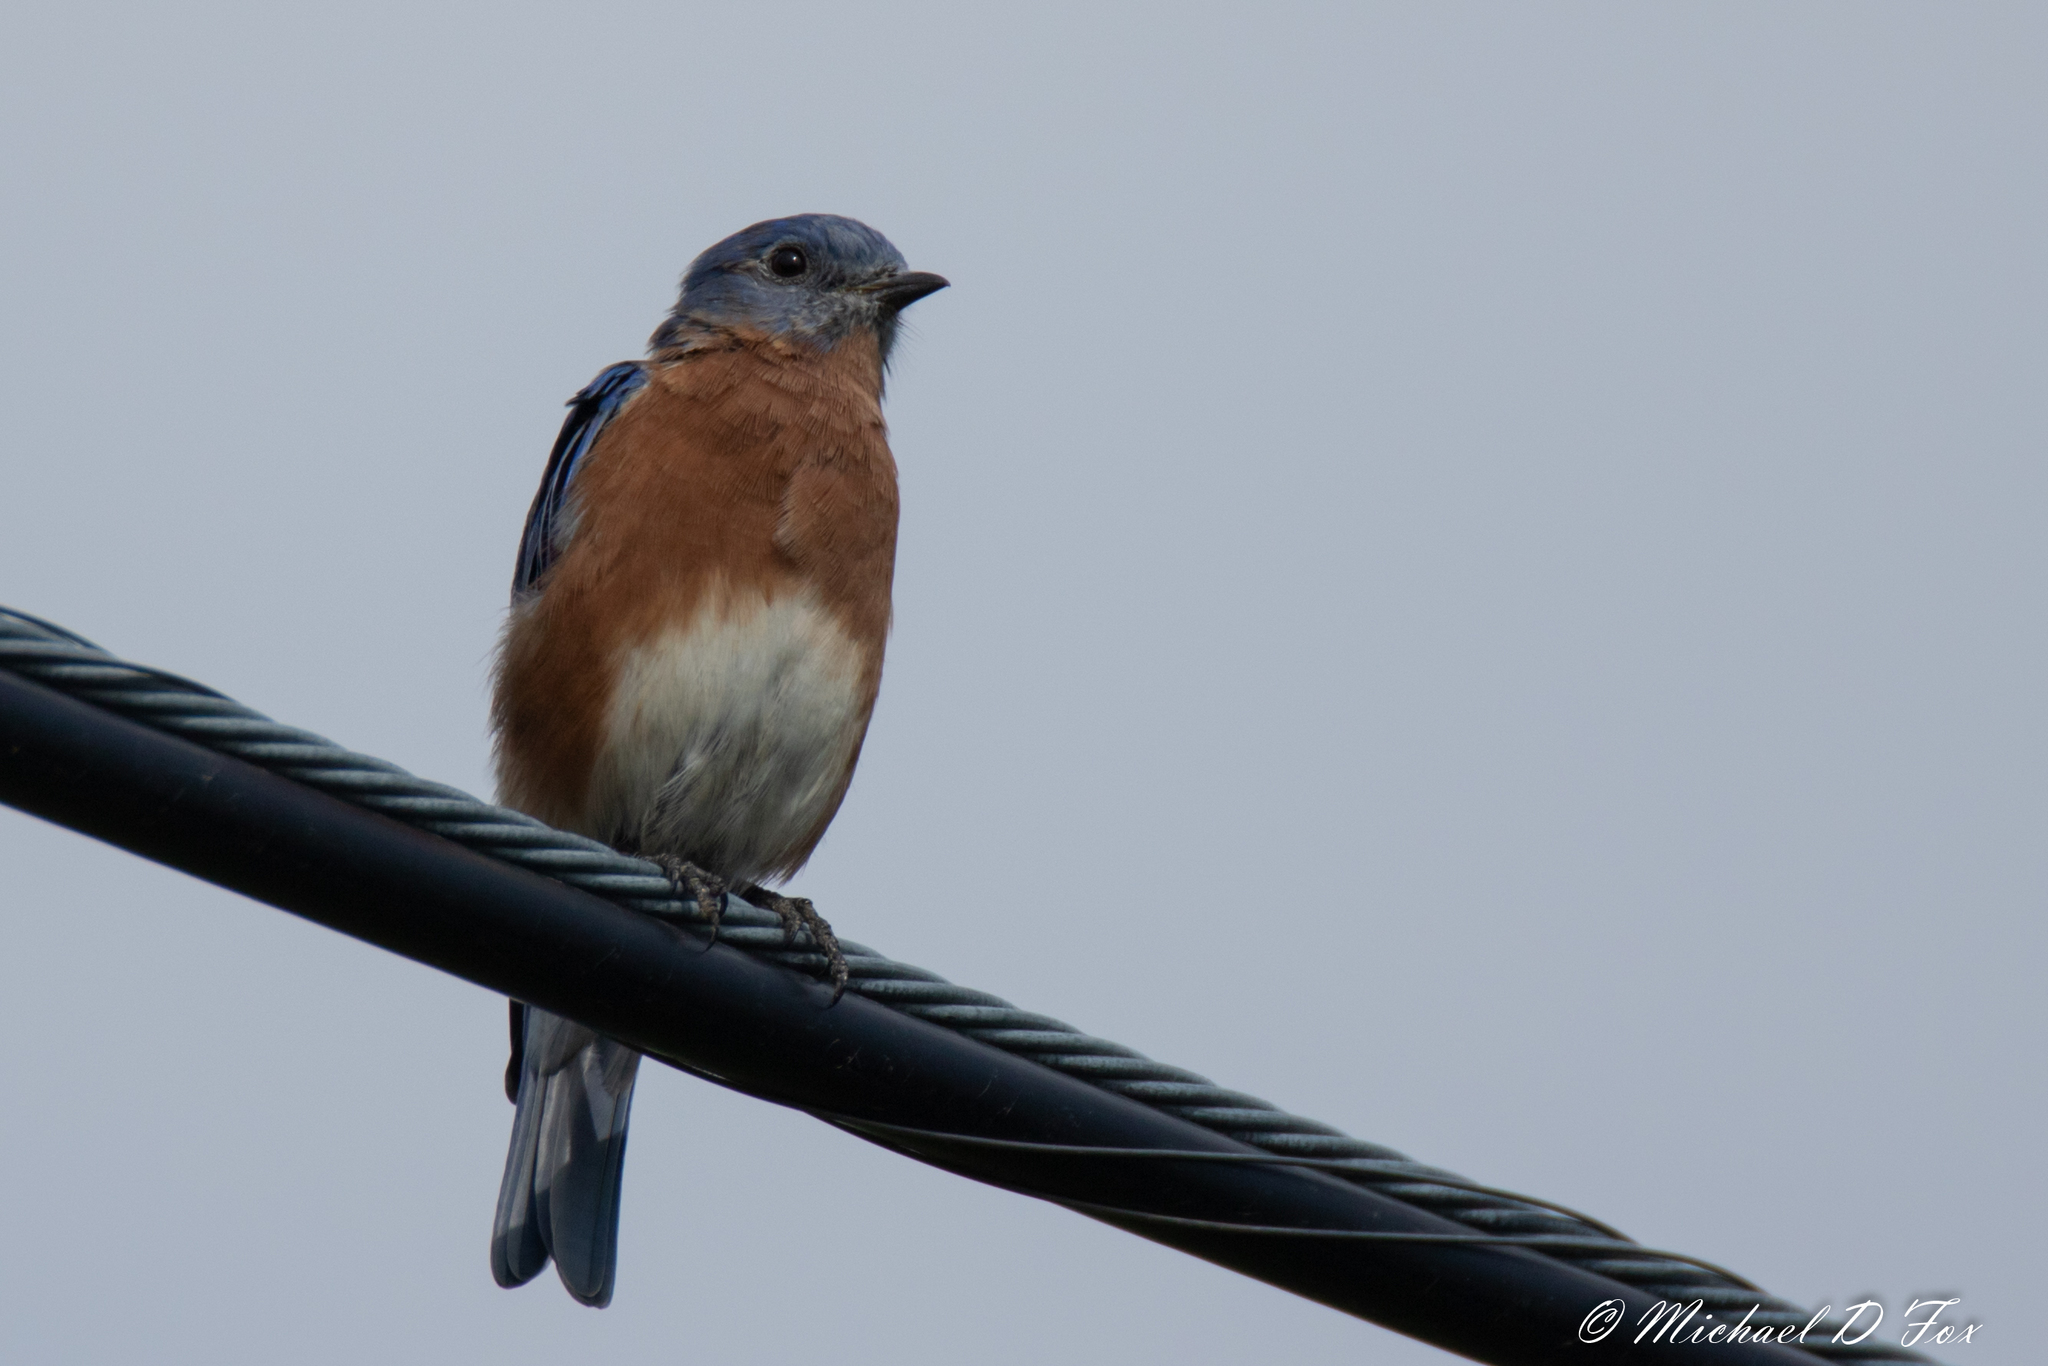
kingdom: Animalia
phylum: Chordata
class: Aves
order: Passeriformes
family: Turdidae
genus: Sialia
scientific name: Sialia sialis
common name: Eastern bluebird
